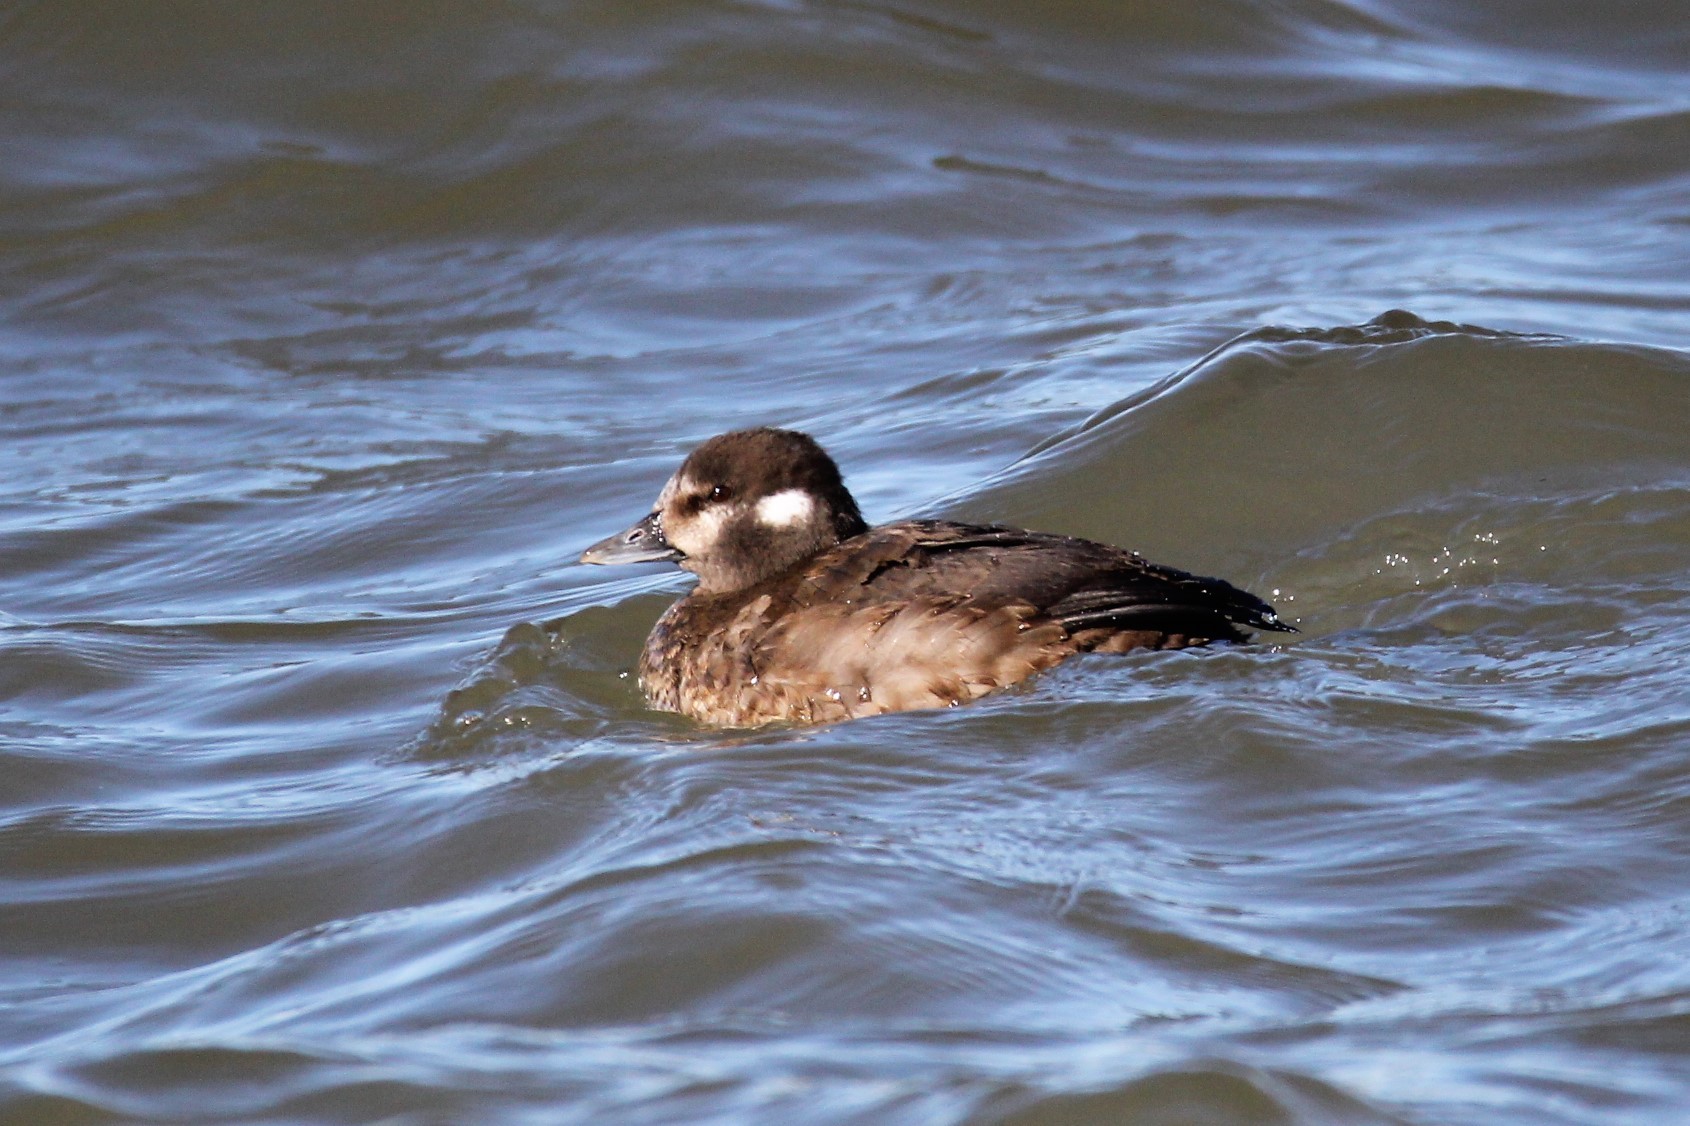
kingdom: Animalia
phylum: Chordata
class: Aves
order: Anseriformes
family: Anatidae
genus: Histrionicus
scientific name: Histrionicus histrionicus
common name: Harlequin duck
